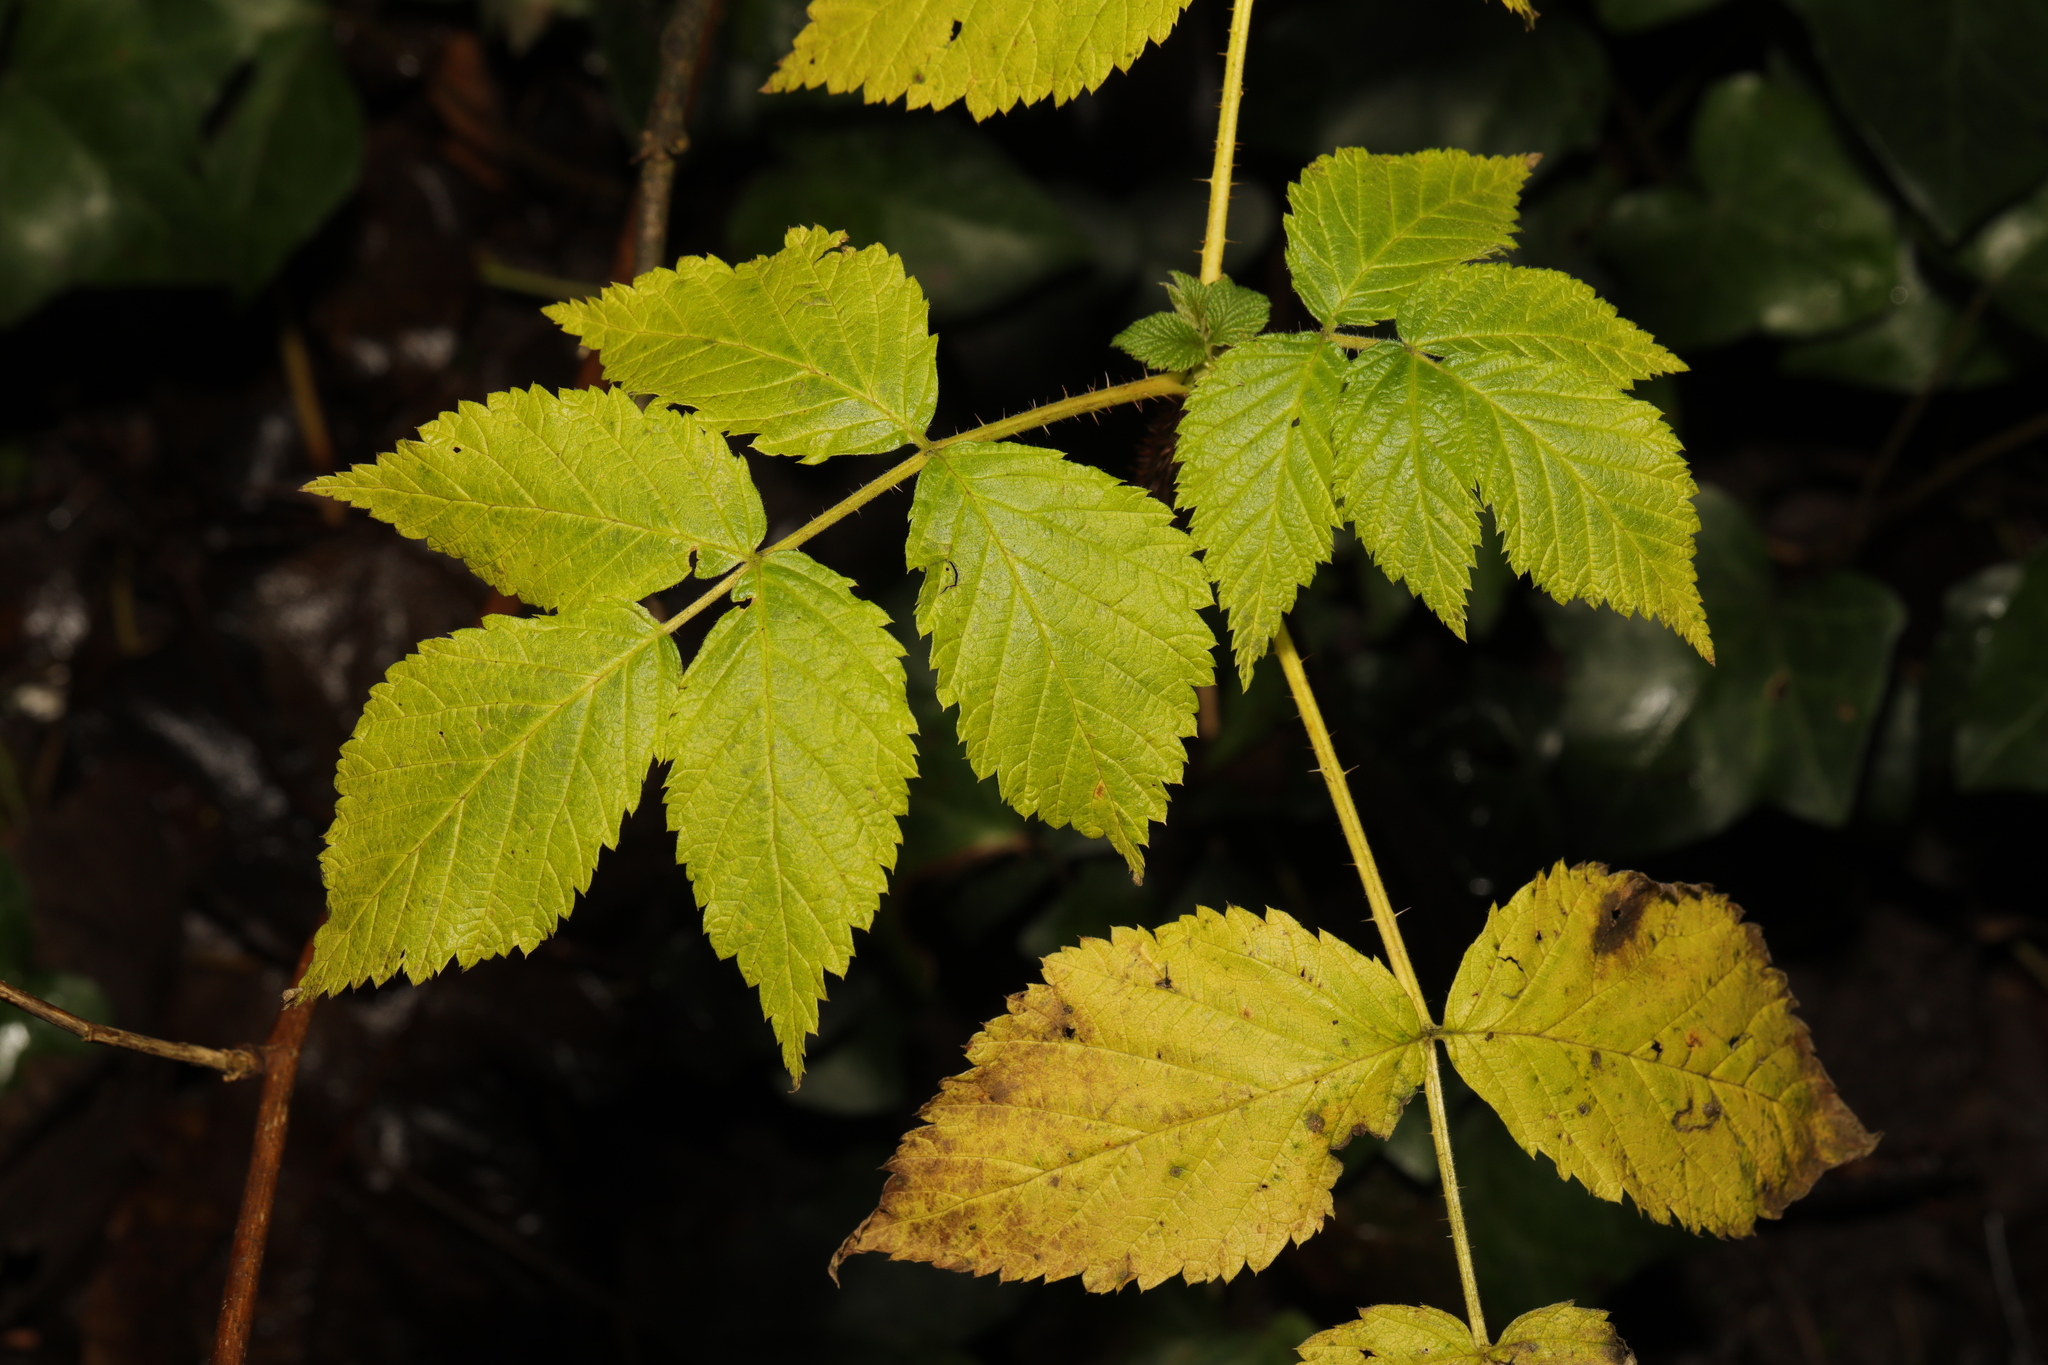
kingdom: Plantae
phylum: Tracheophyta
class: Magnoliopsida
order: Rosales
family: Rosaceae
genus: Rubus
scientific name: Rubus idaeus
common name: Raspberry
